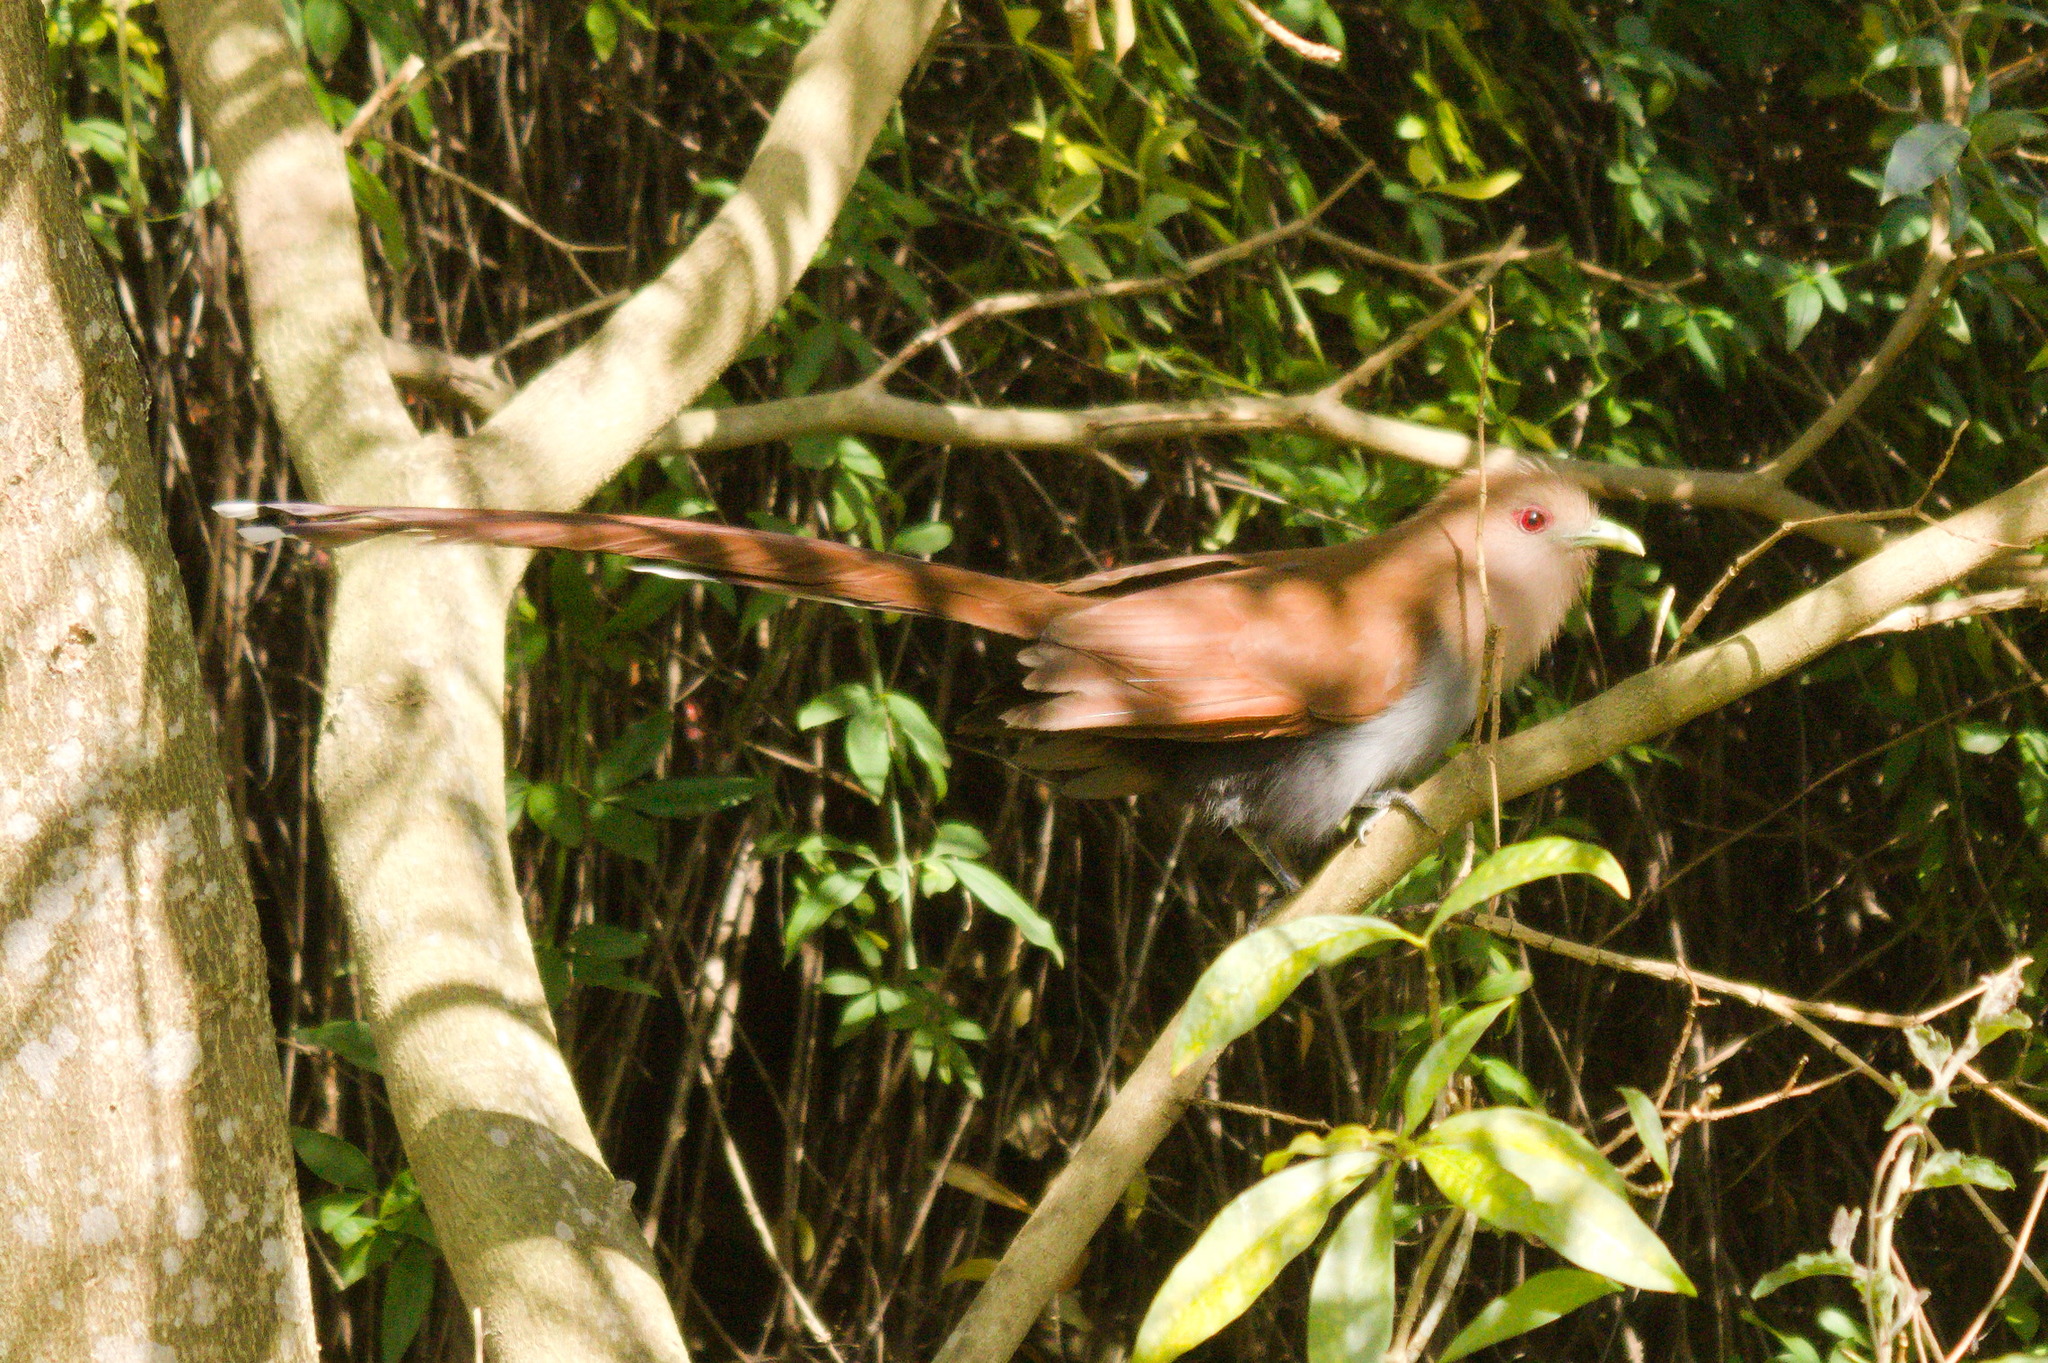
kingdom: Animalia
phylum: Chordata
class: Aves
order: Cuculiformes
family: Cuculidae
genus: Piaya
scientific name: Piaya cayana
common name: Squirrel cuckoo
